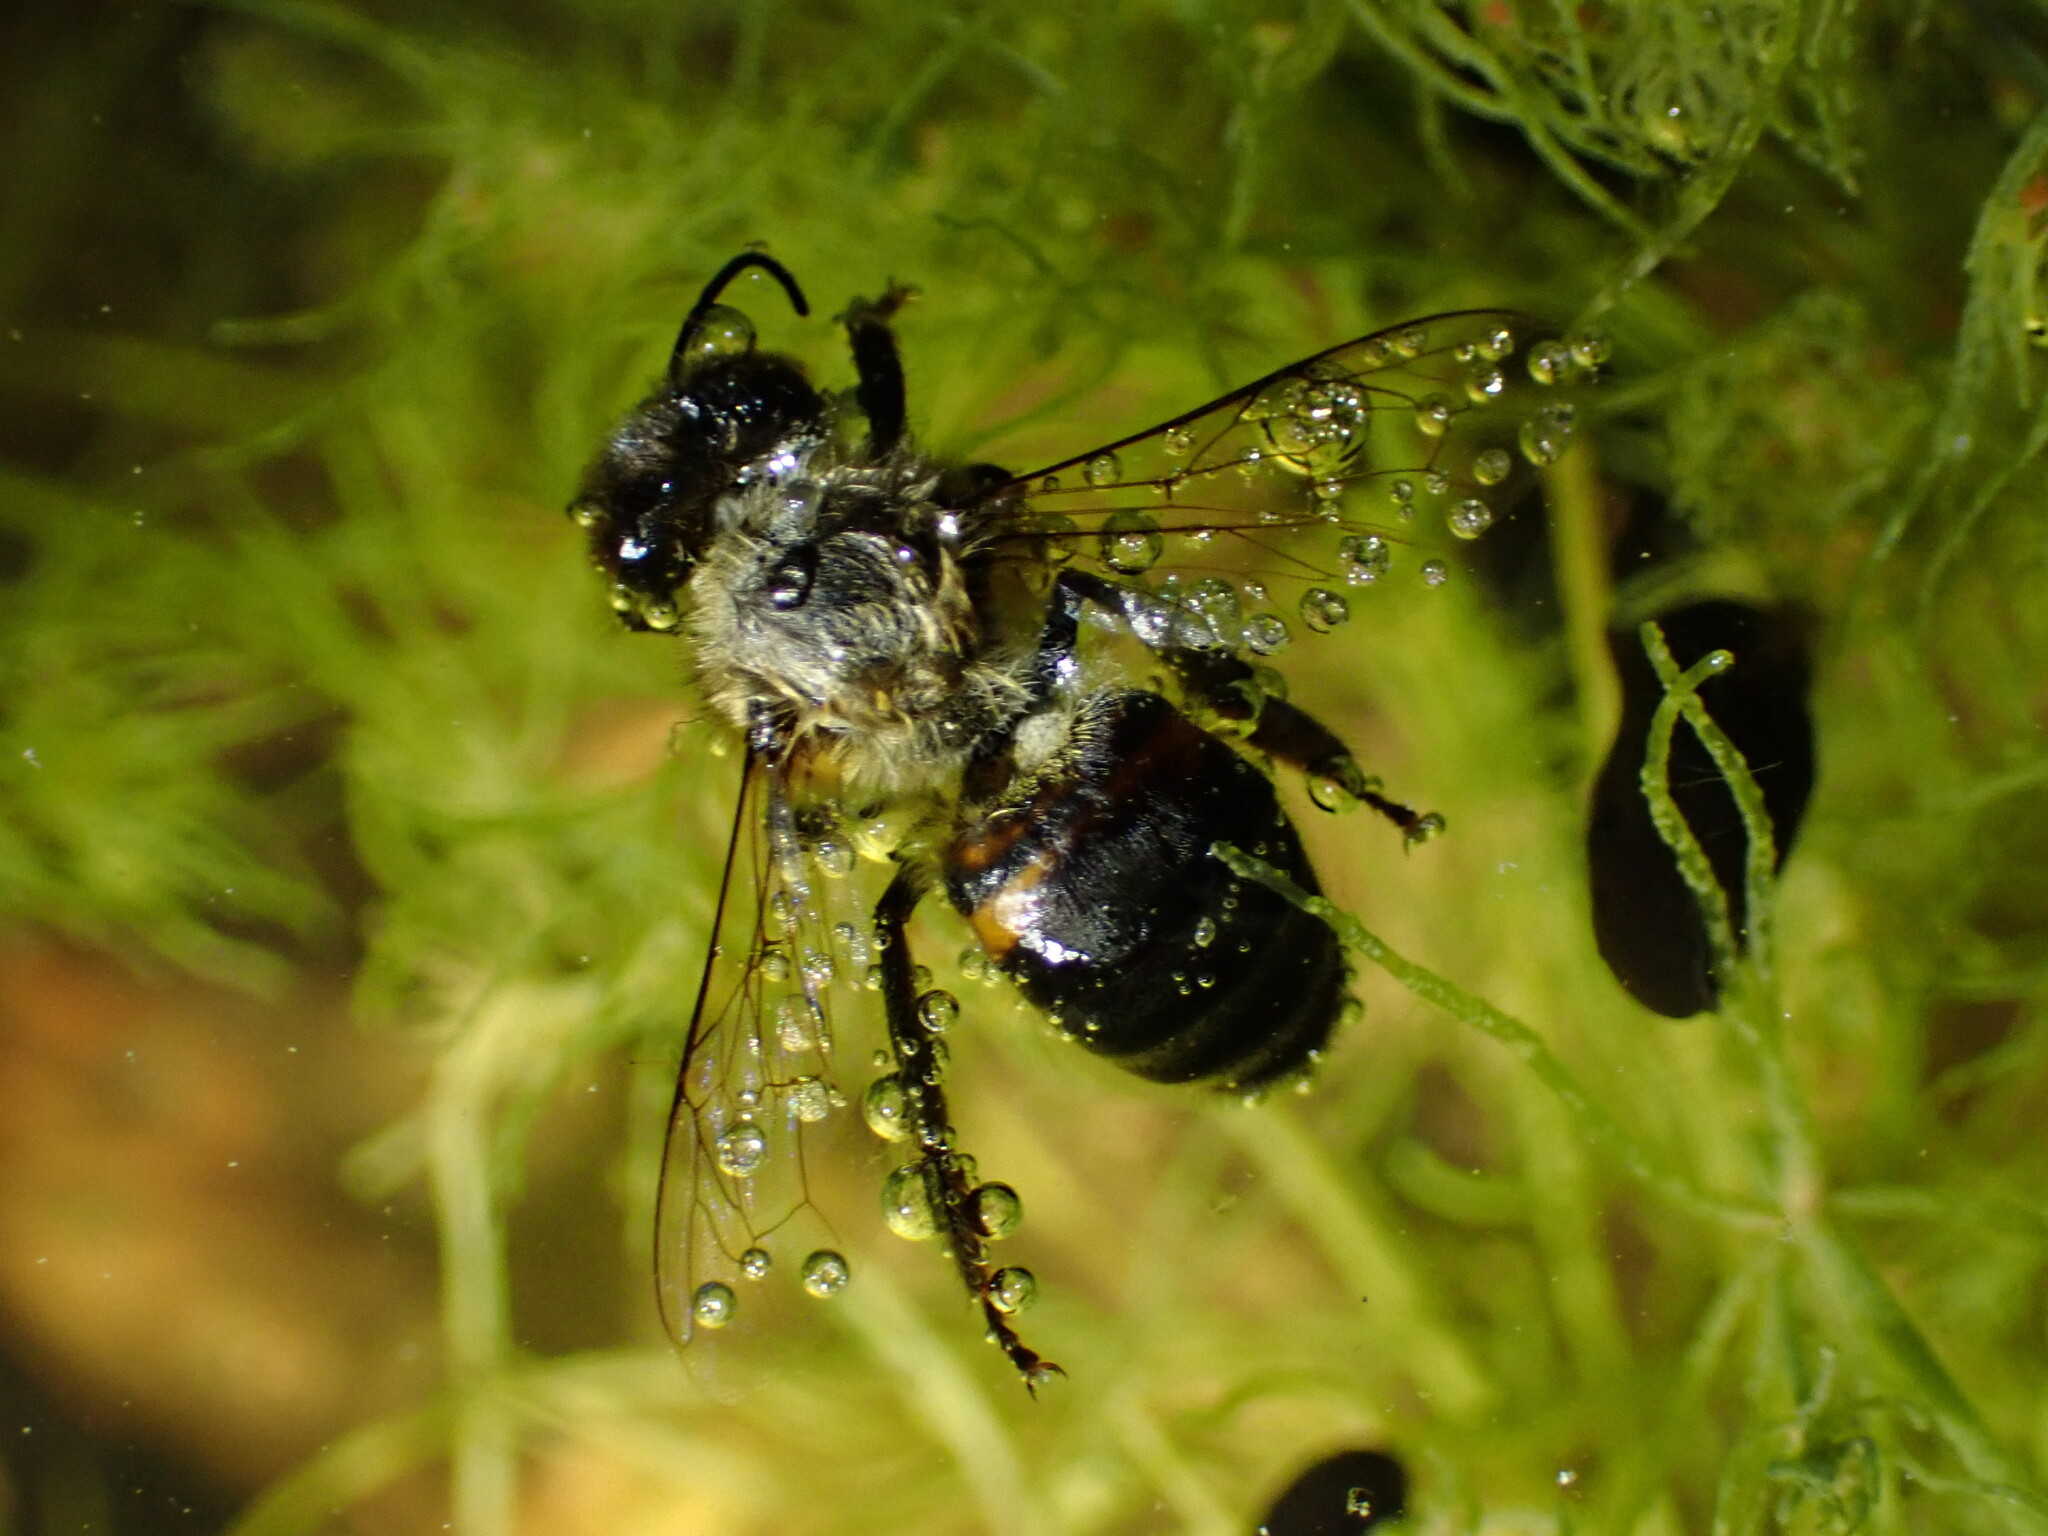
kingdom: Animalia
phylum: Arthropoda
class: Insecta
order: Hymenoptera
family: Apidae
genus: Apis
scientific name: Apis mellifera
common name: Honey bee
